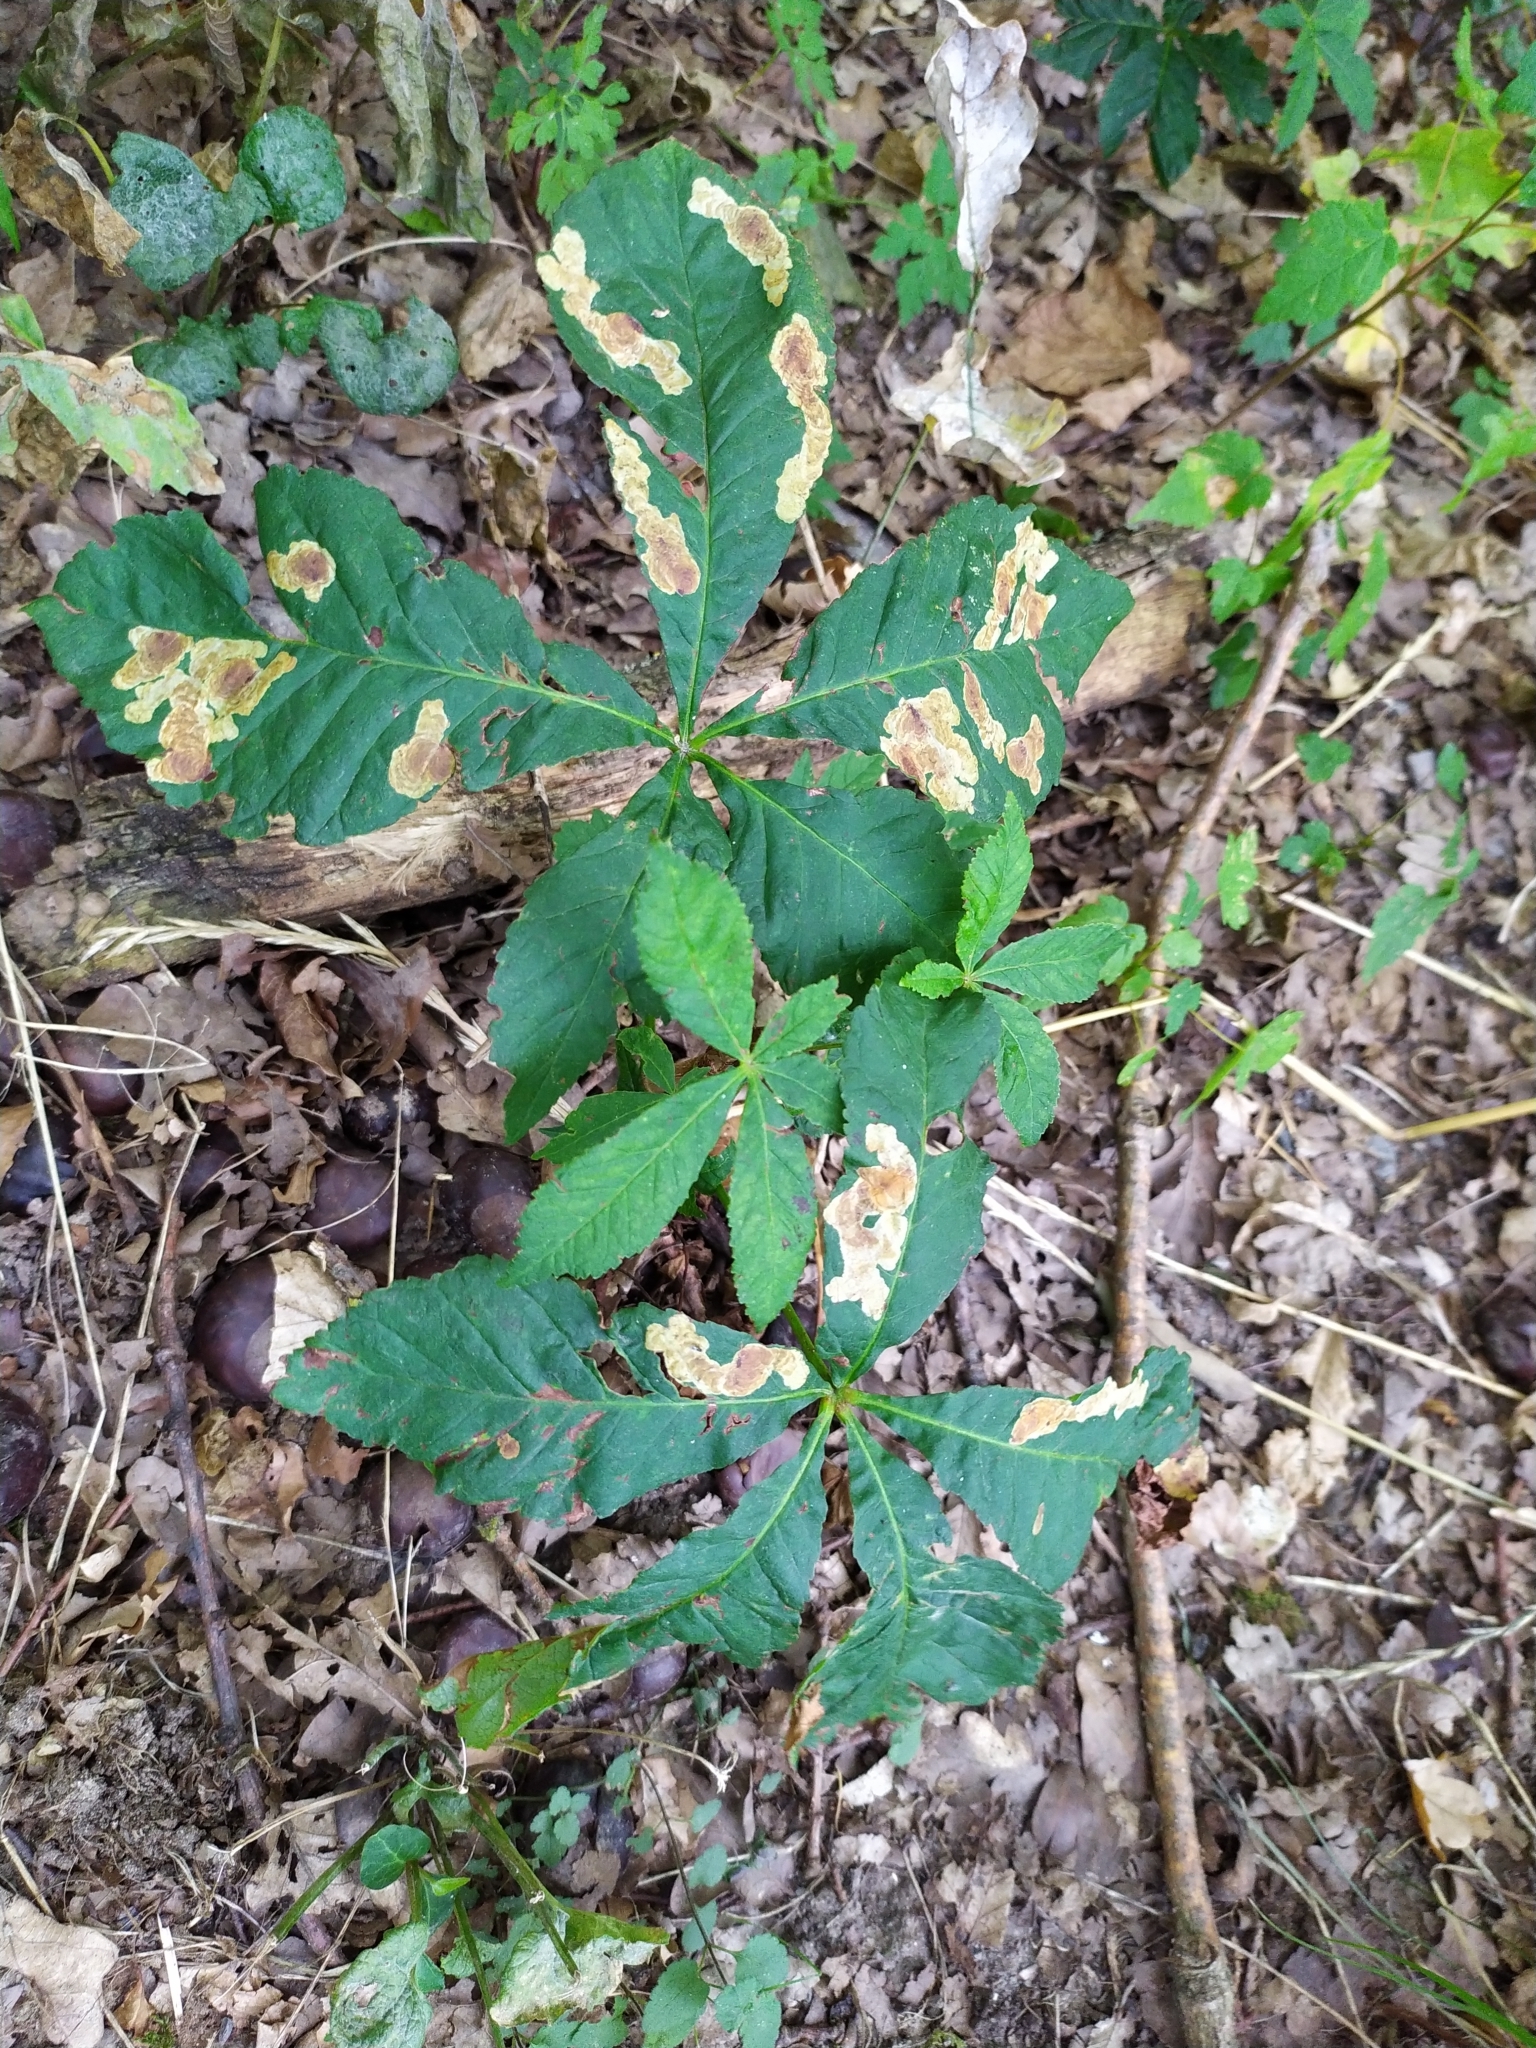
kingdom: Plantae
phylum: Tracheophyta
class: Magnoliopsida
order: Sapindales
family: Sapindaceae
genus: Aesculus
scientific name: Aesculus hippocastanum
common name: Horse-chestnut
